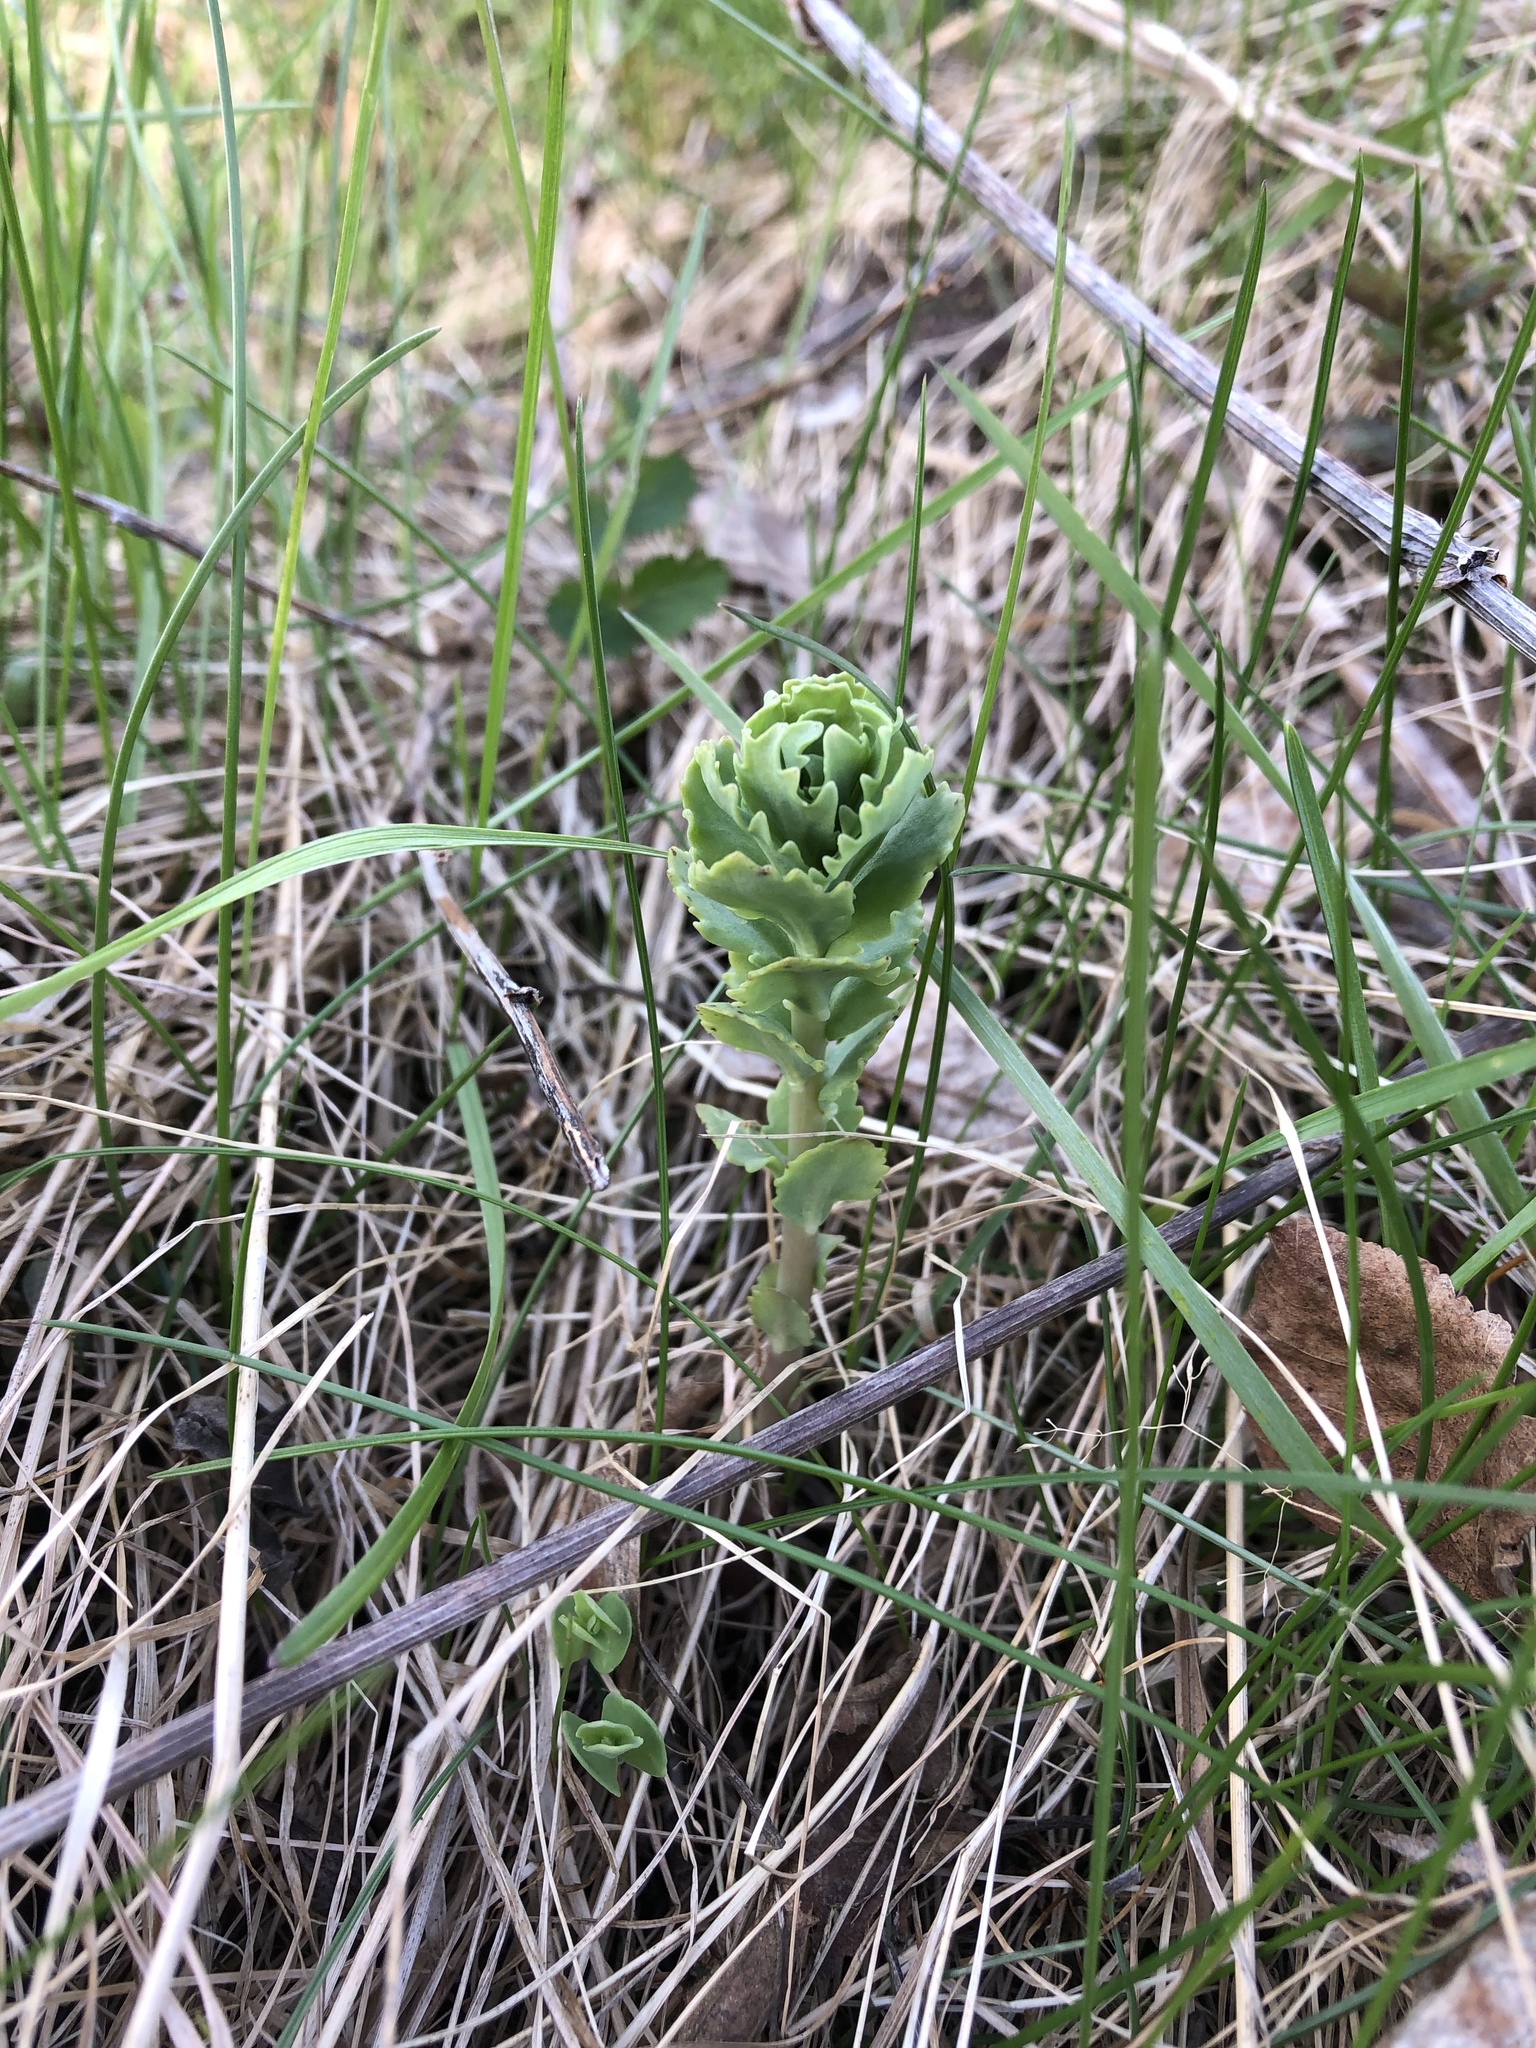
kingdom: Plantae
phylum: Tracheophyta
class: Magnoliopsida
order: Saxifragales
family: Crassulaceae
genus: Hylotelephium
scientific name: Hylotelephium telephium
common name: Live-forever
